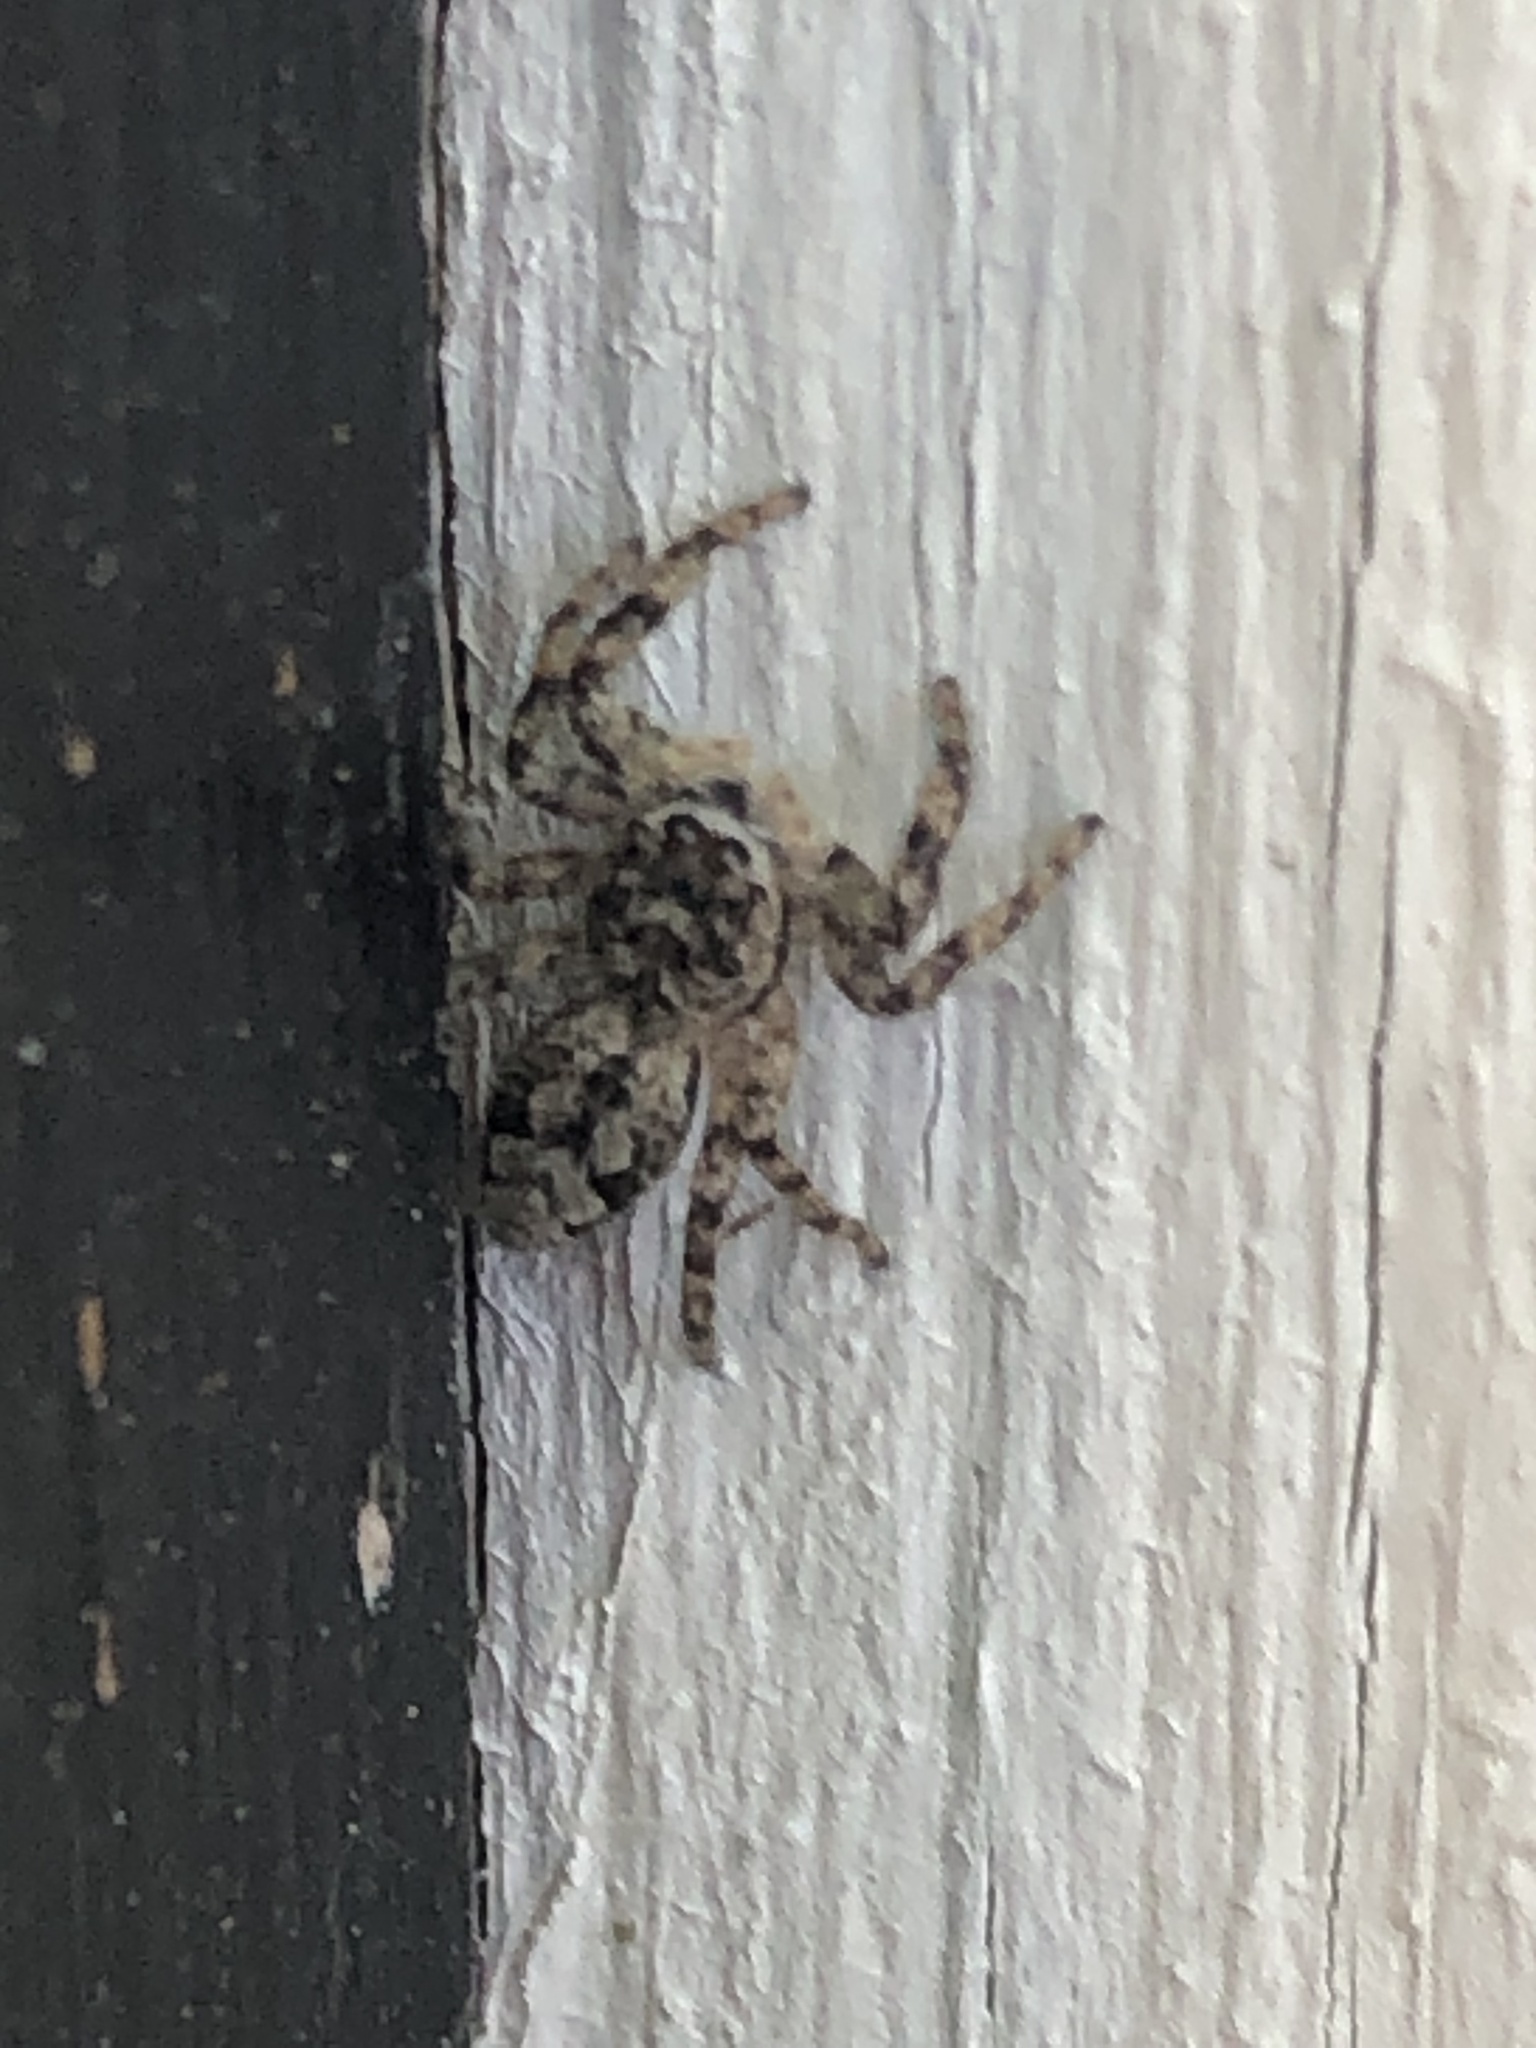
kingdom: Animalia
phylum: Arthropoda
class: Arachnida
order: Araneae
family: Salticidae
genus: Platycryptus
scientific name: Platycryptus undatus
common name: Tan jumping spider
